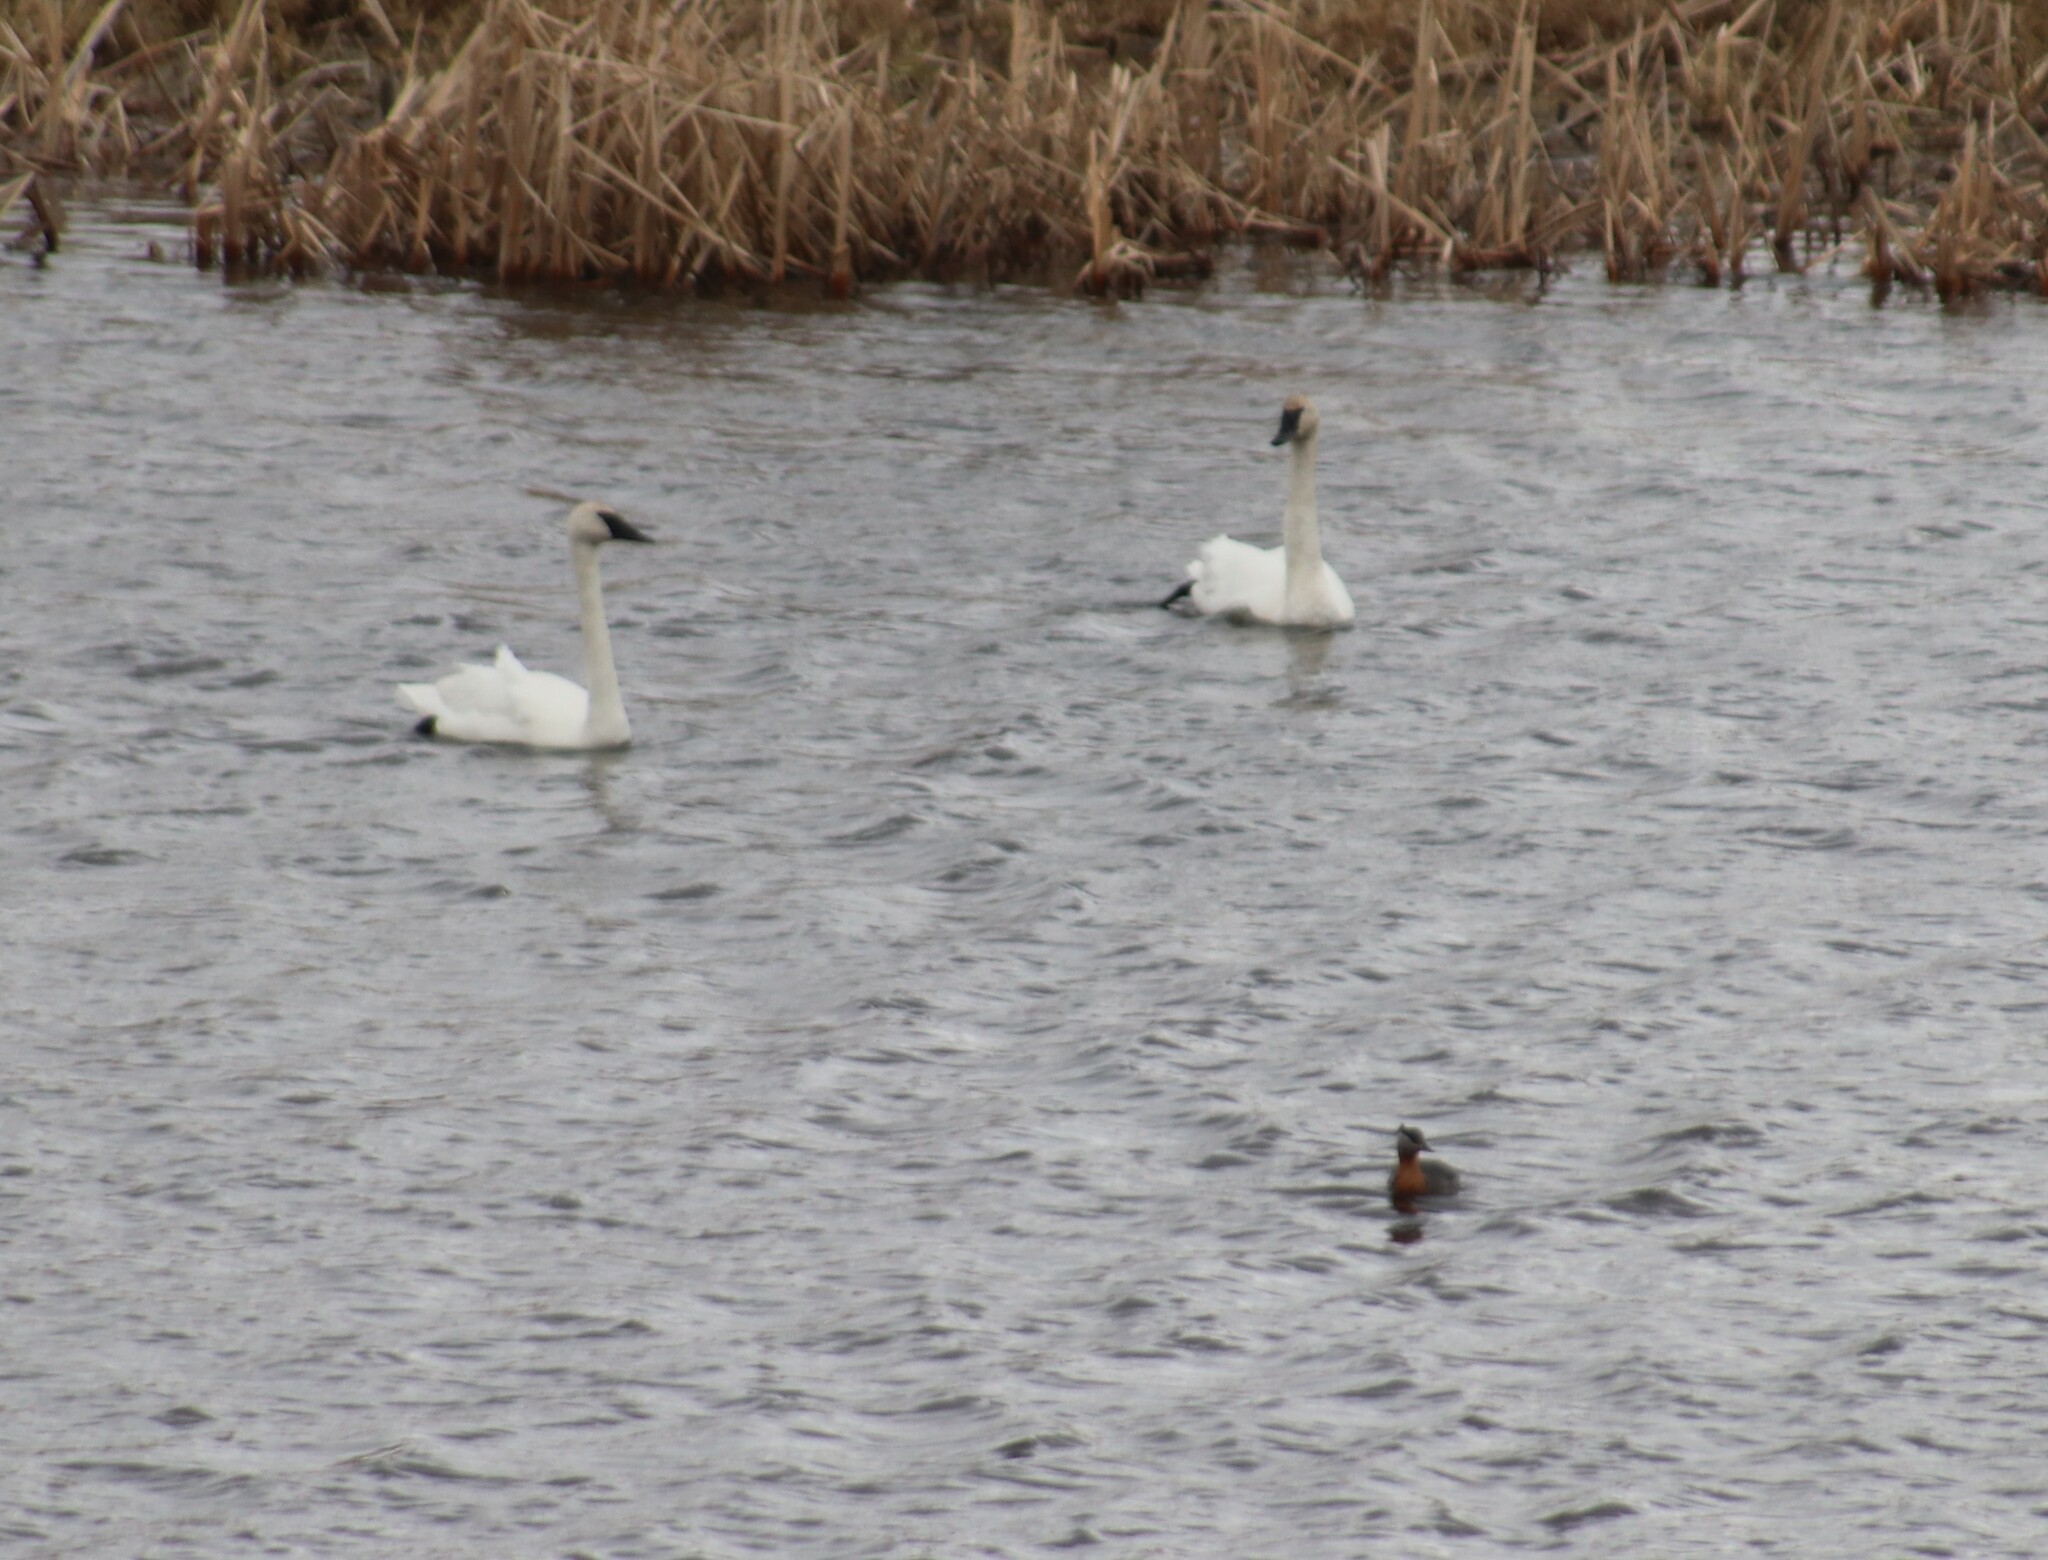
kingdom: Animalia
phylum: Chordata
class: Aves
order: Anseriformes
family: Anatidae
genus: Cygnus
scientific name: Cygnus buccinator
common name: Trumpeter swan
